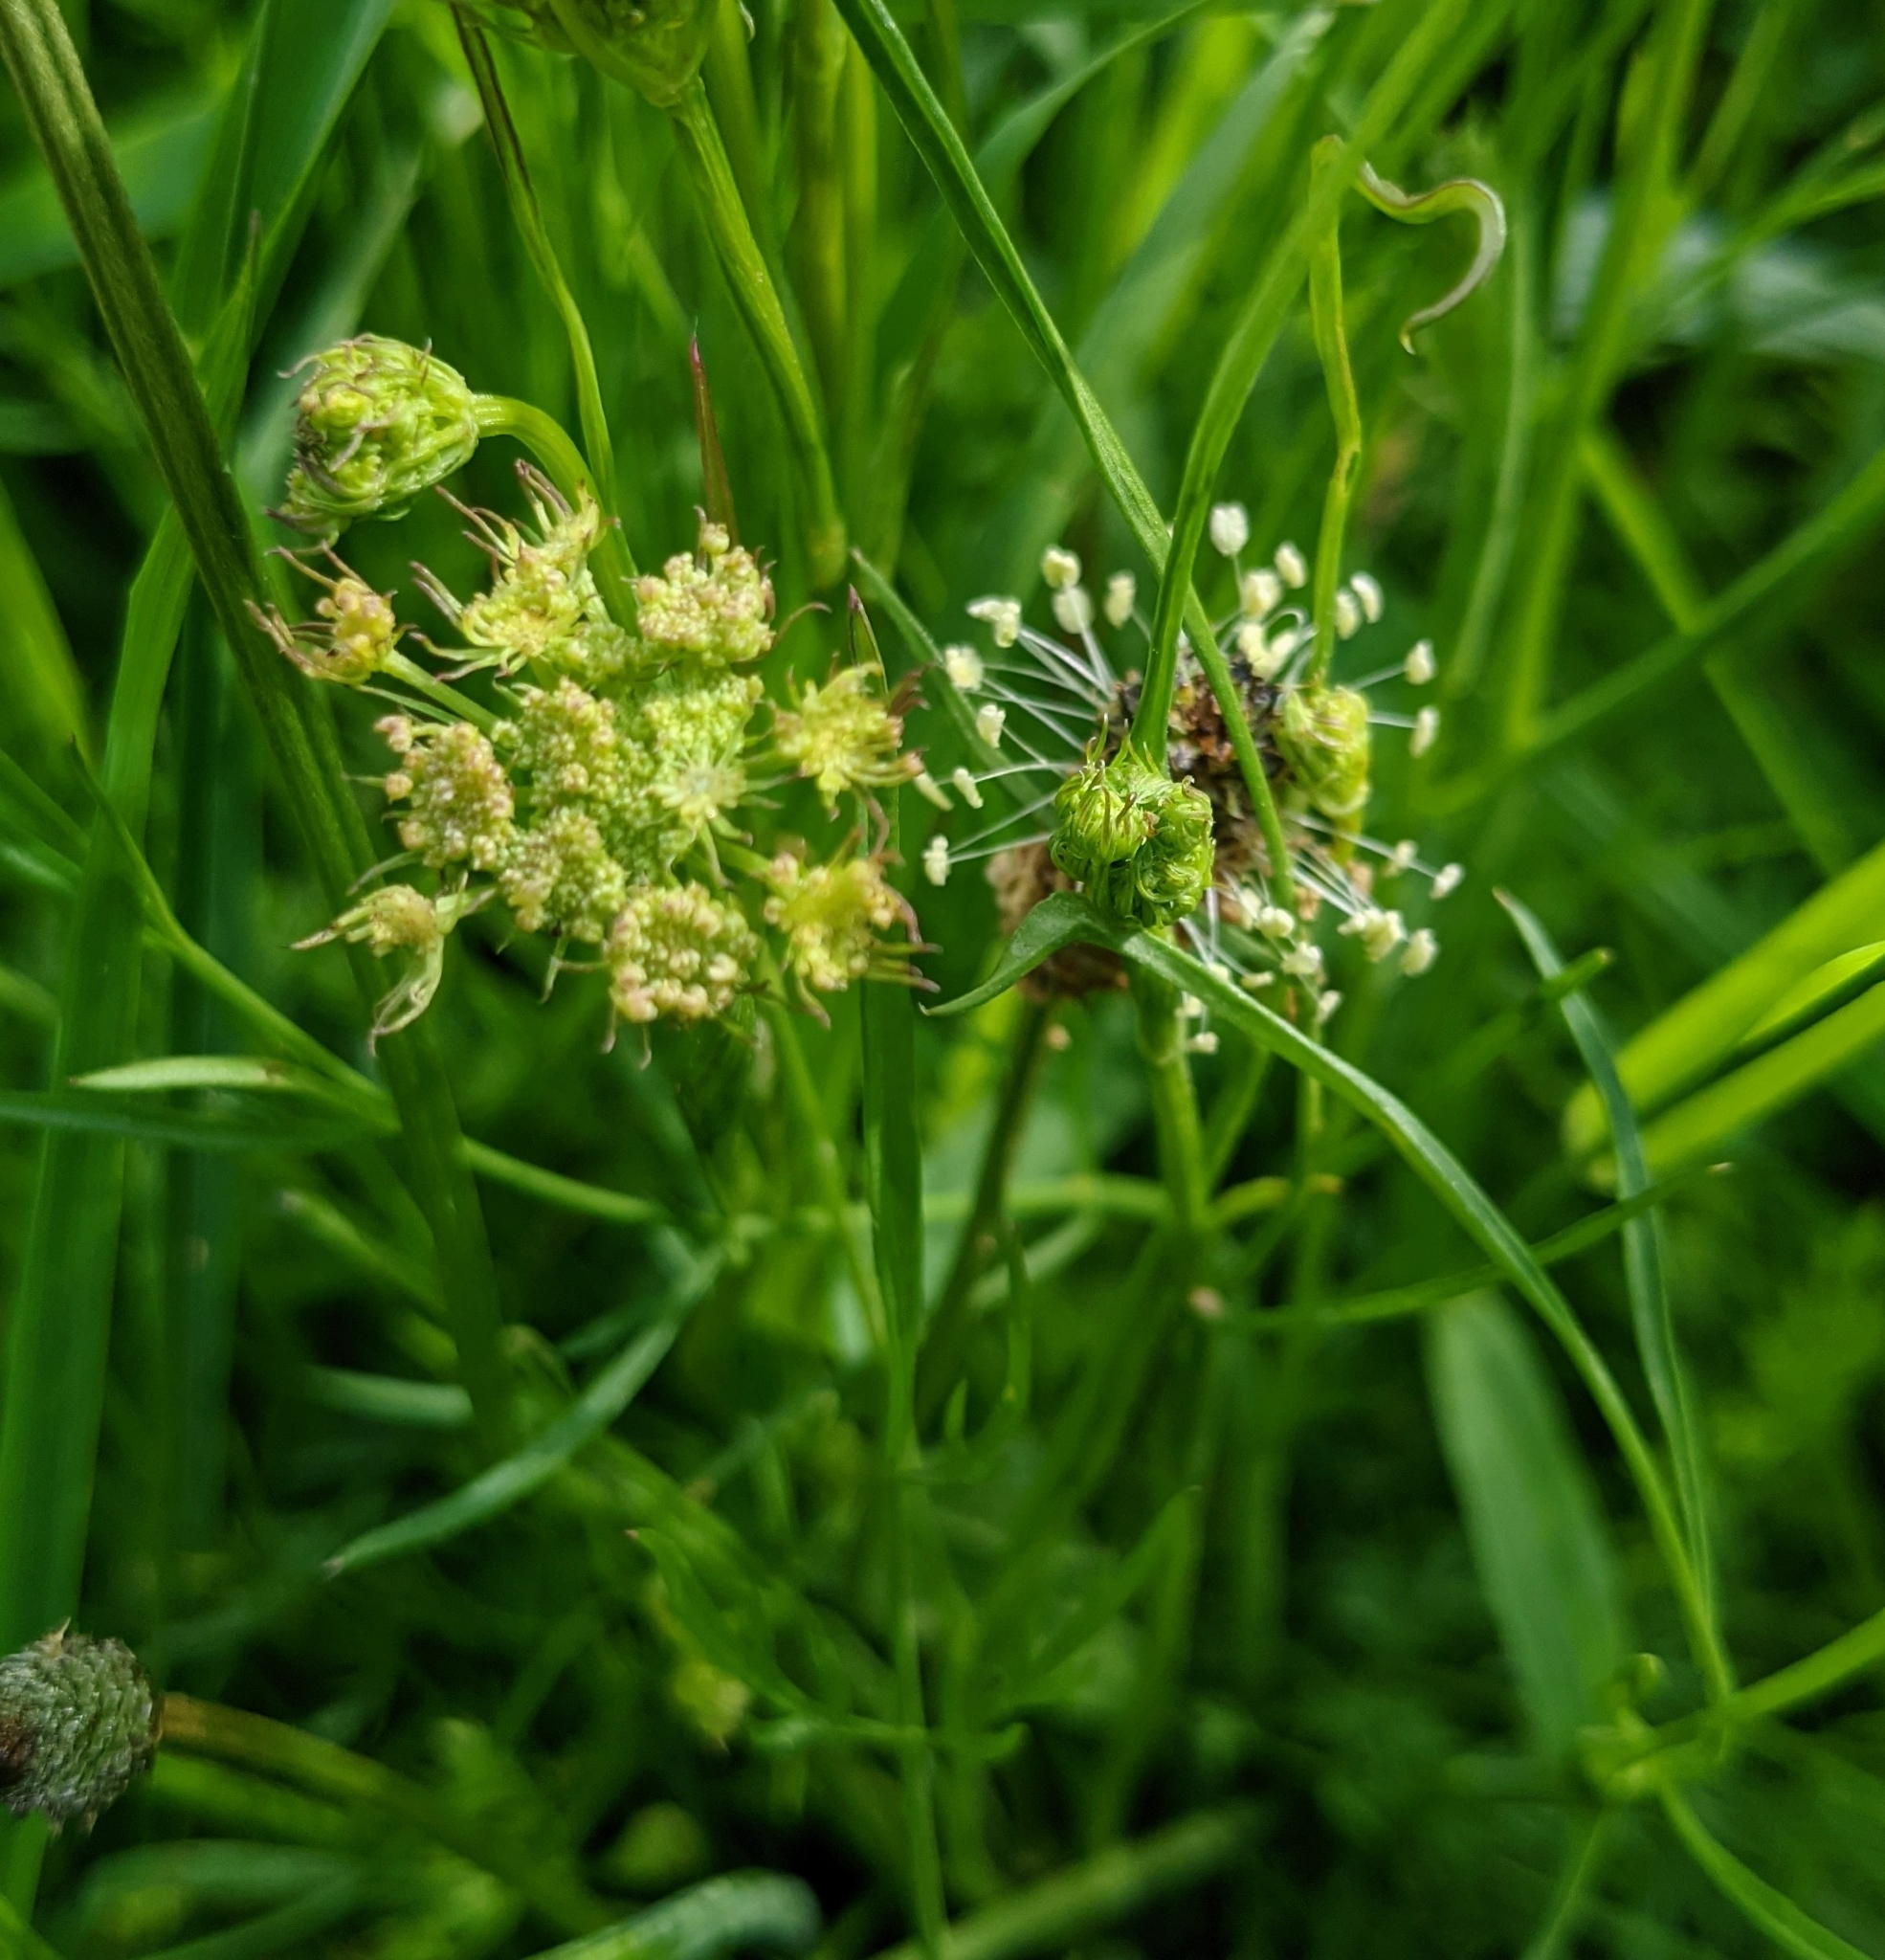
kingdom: Plantae
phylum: Tracheophyta
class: Magnoliopsida
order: Lamiales
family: Plantaginaceae
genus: Plantago
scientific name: Plantago lanceolata
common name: Ribwort plantain
